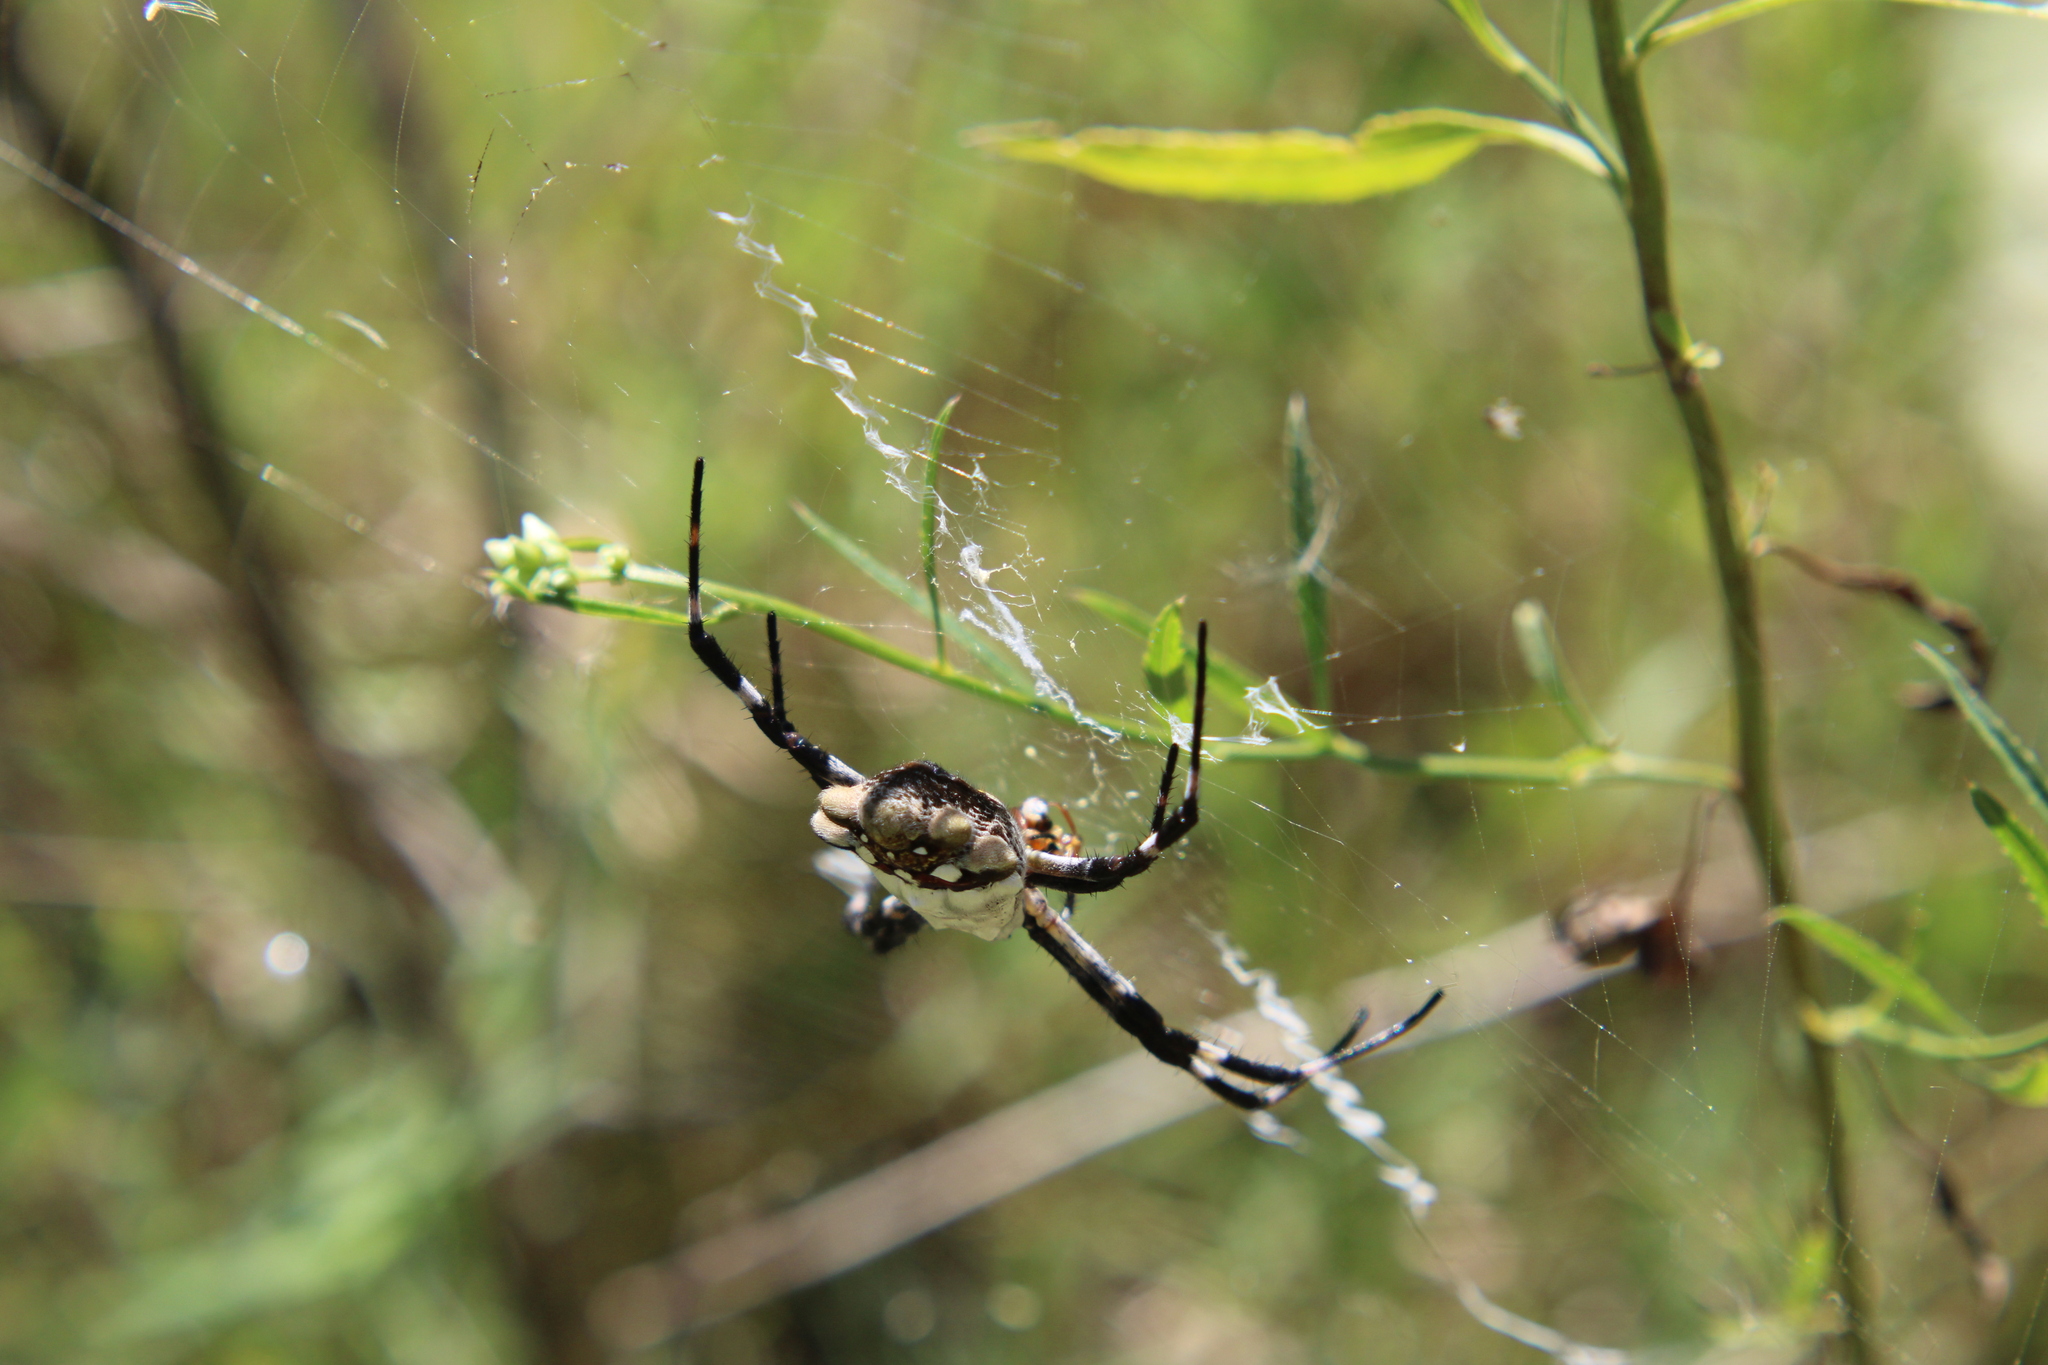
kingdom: Animalia
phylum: Arthropoda
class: Arachnida
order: Araneae
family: Araneidae
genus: Argiope
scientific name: Argiope argentata
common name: Orb weavers
